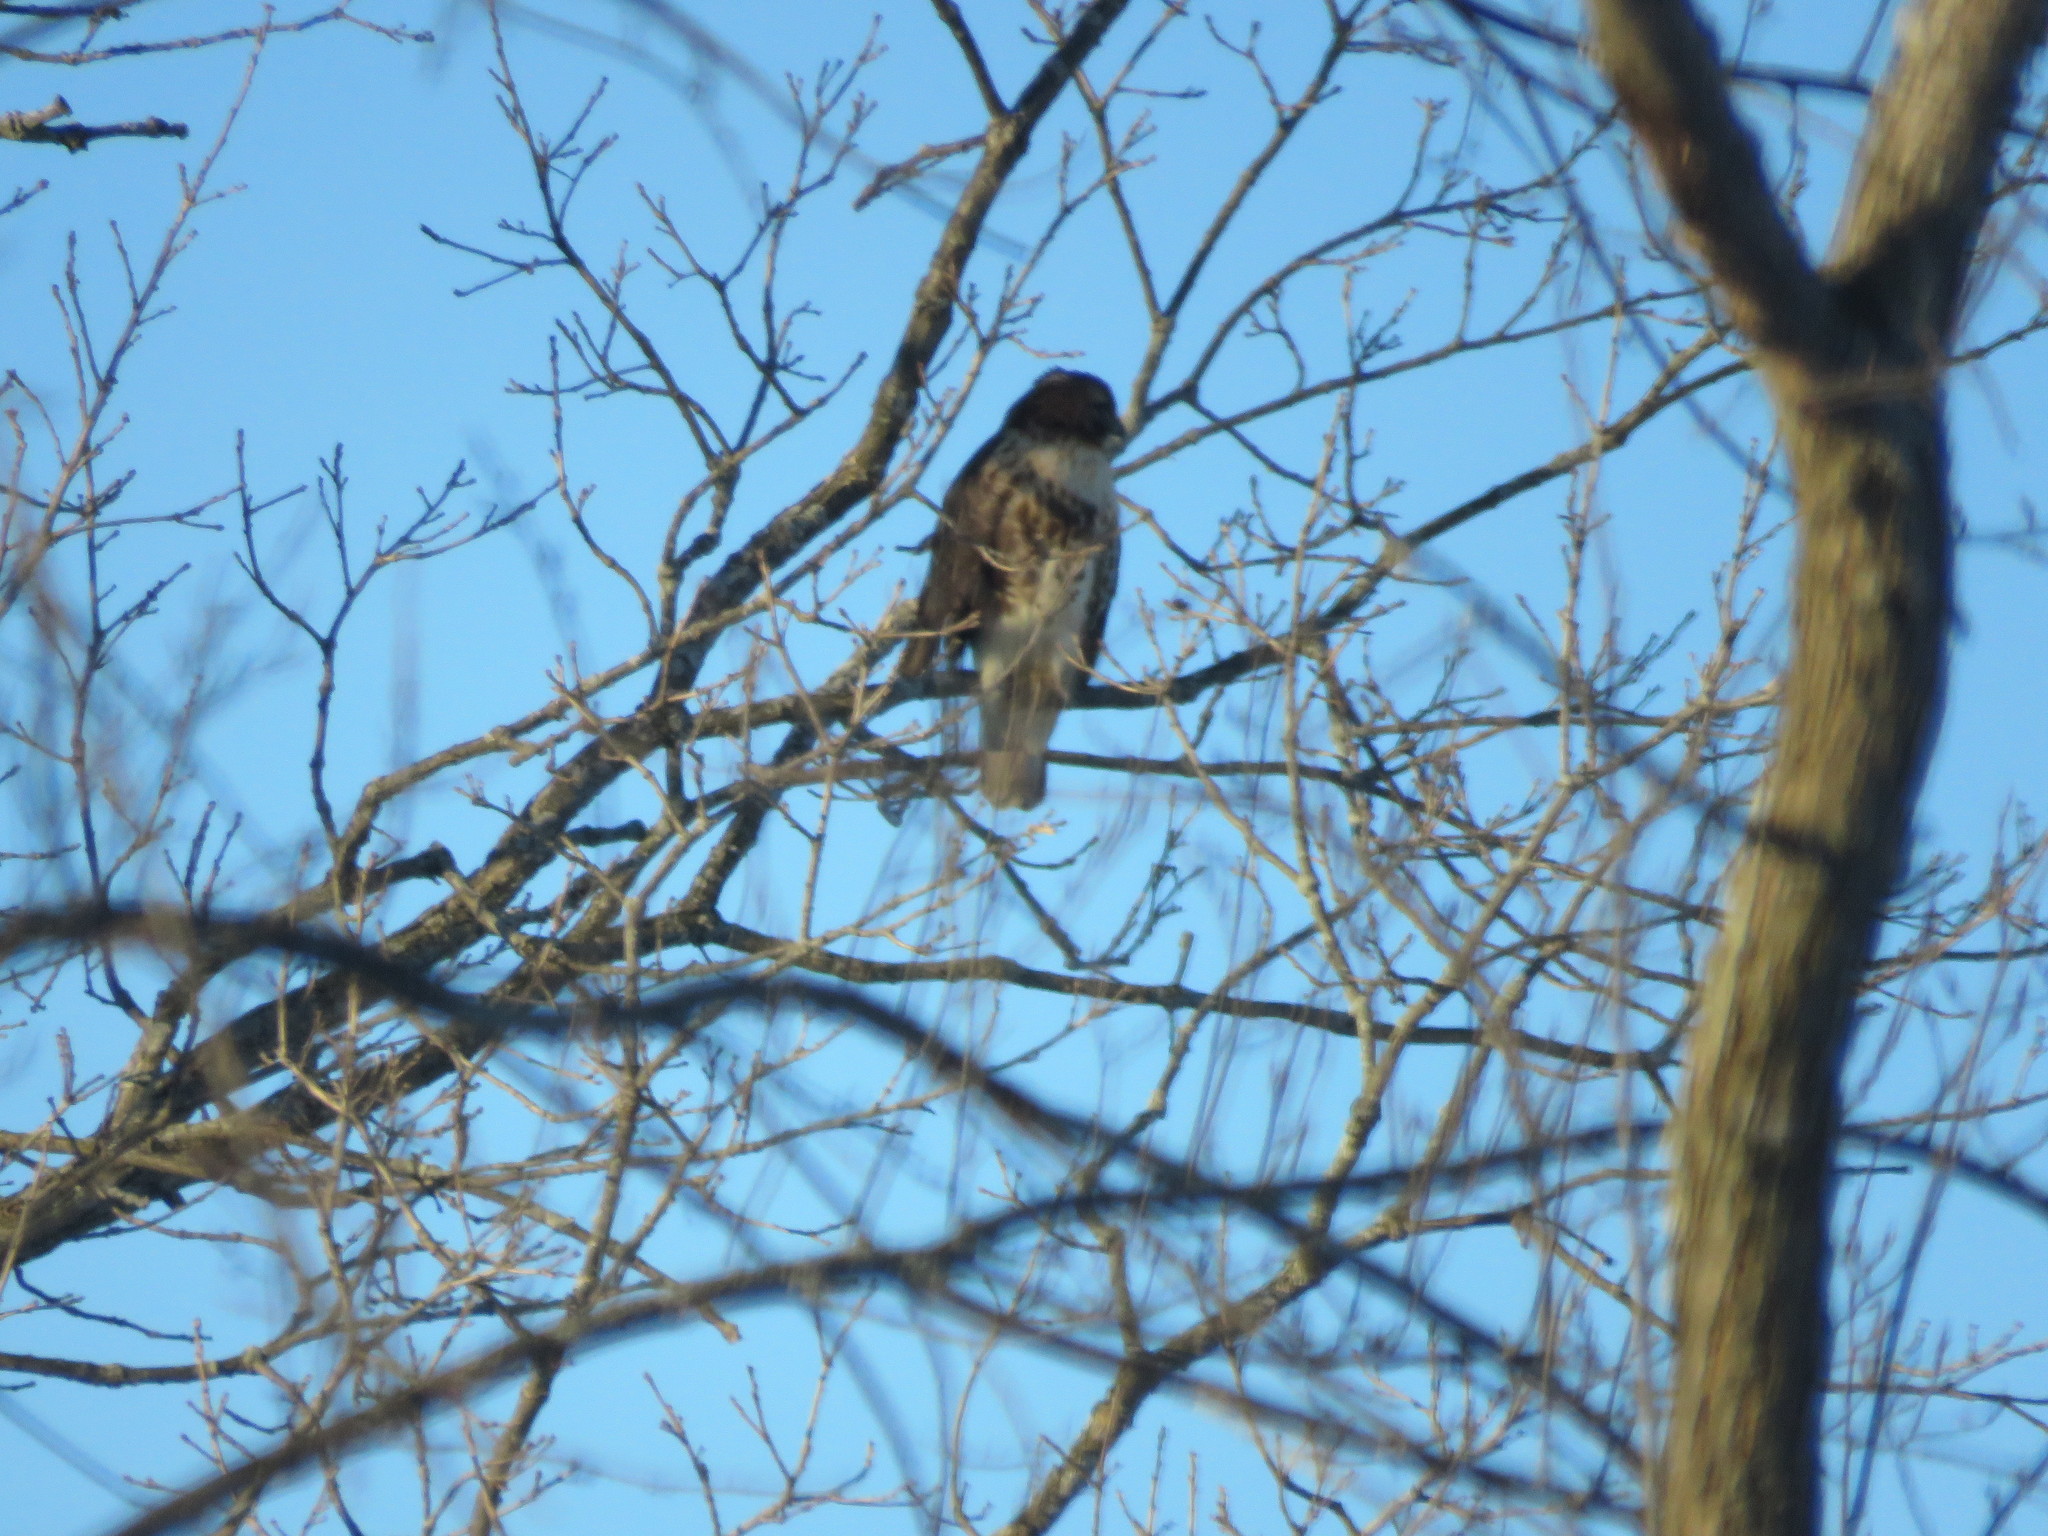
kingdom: Animalia
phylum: Chordata
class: Aves
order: Accipitriformes
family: Accipitridae
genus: Buteo
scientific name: Buteo jamaicensis
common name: Red-tailed hawk
